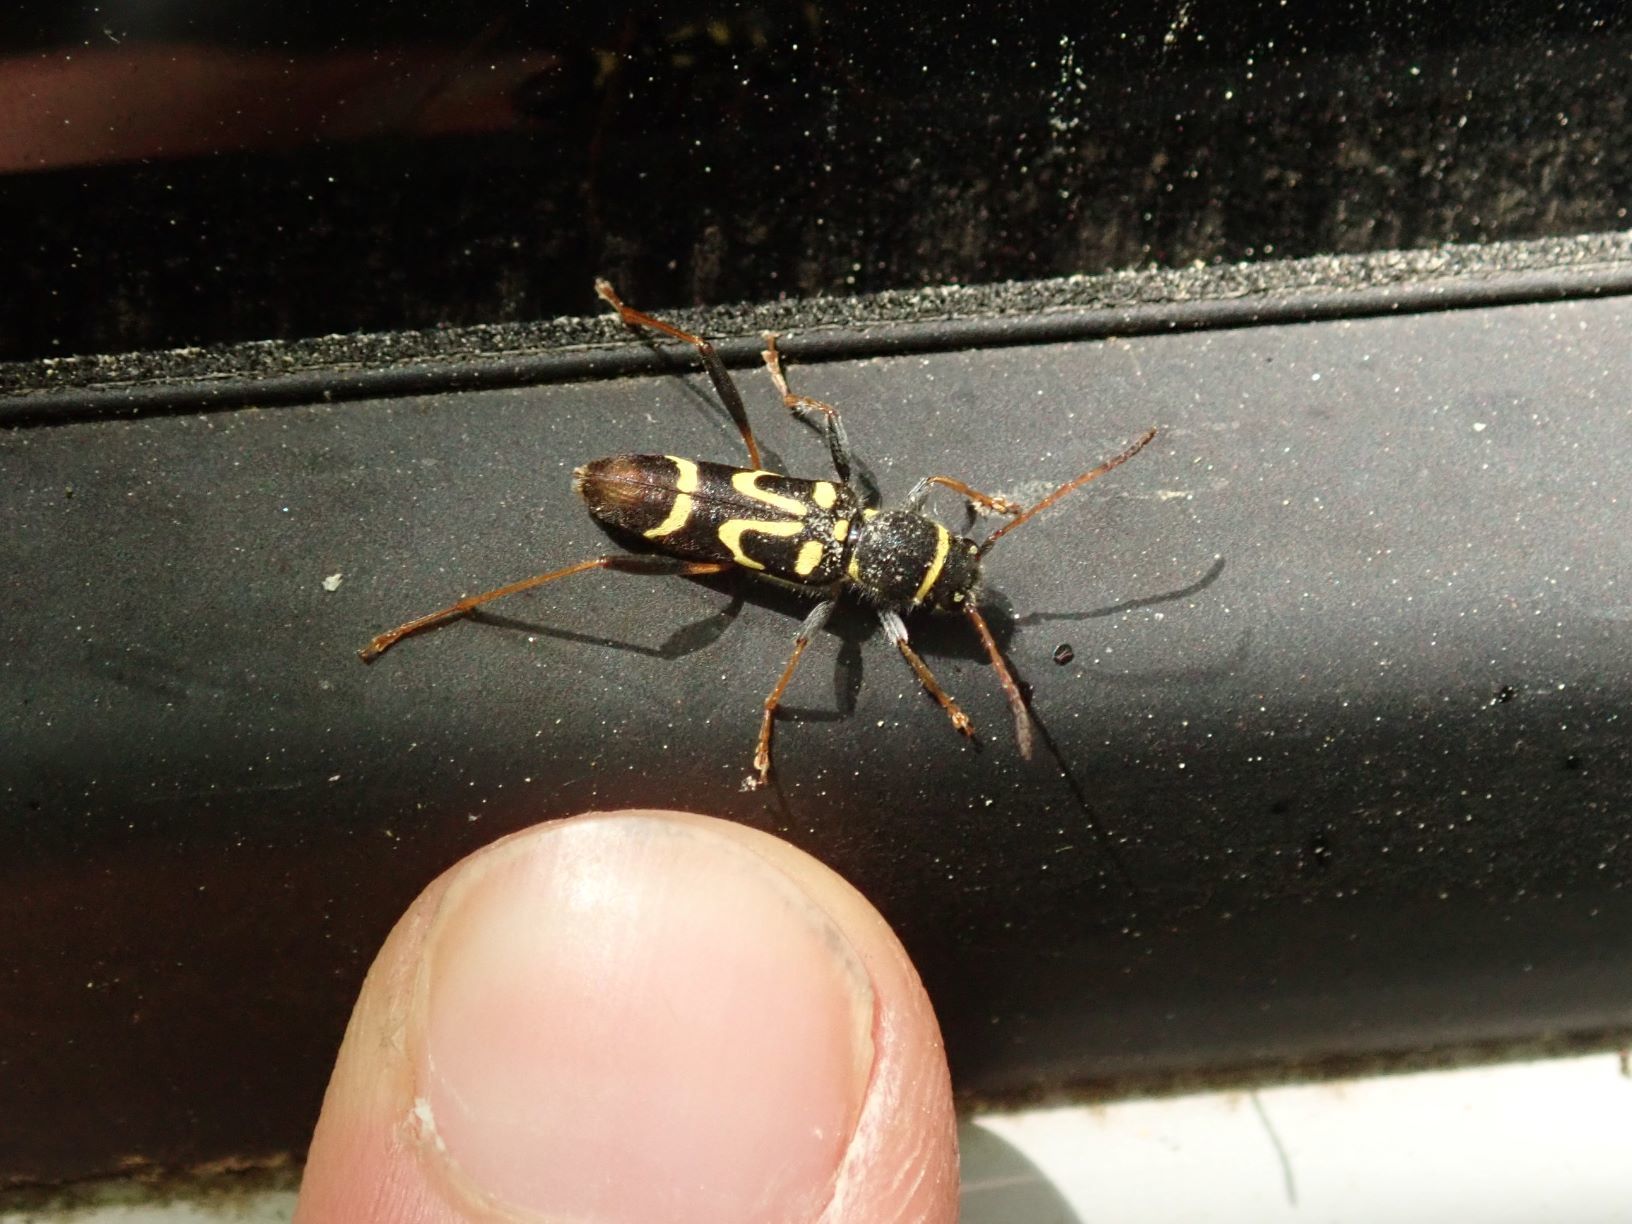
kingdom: Animalia
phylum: Arthropoda
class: Insecta
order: Coleoptera
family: Cerambycidae
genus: Clytus
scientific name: Clytus ruricola
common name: Round-necked longhorn beetle
